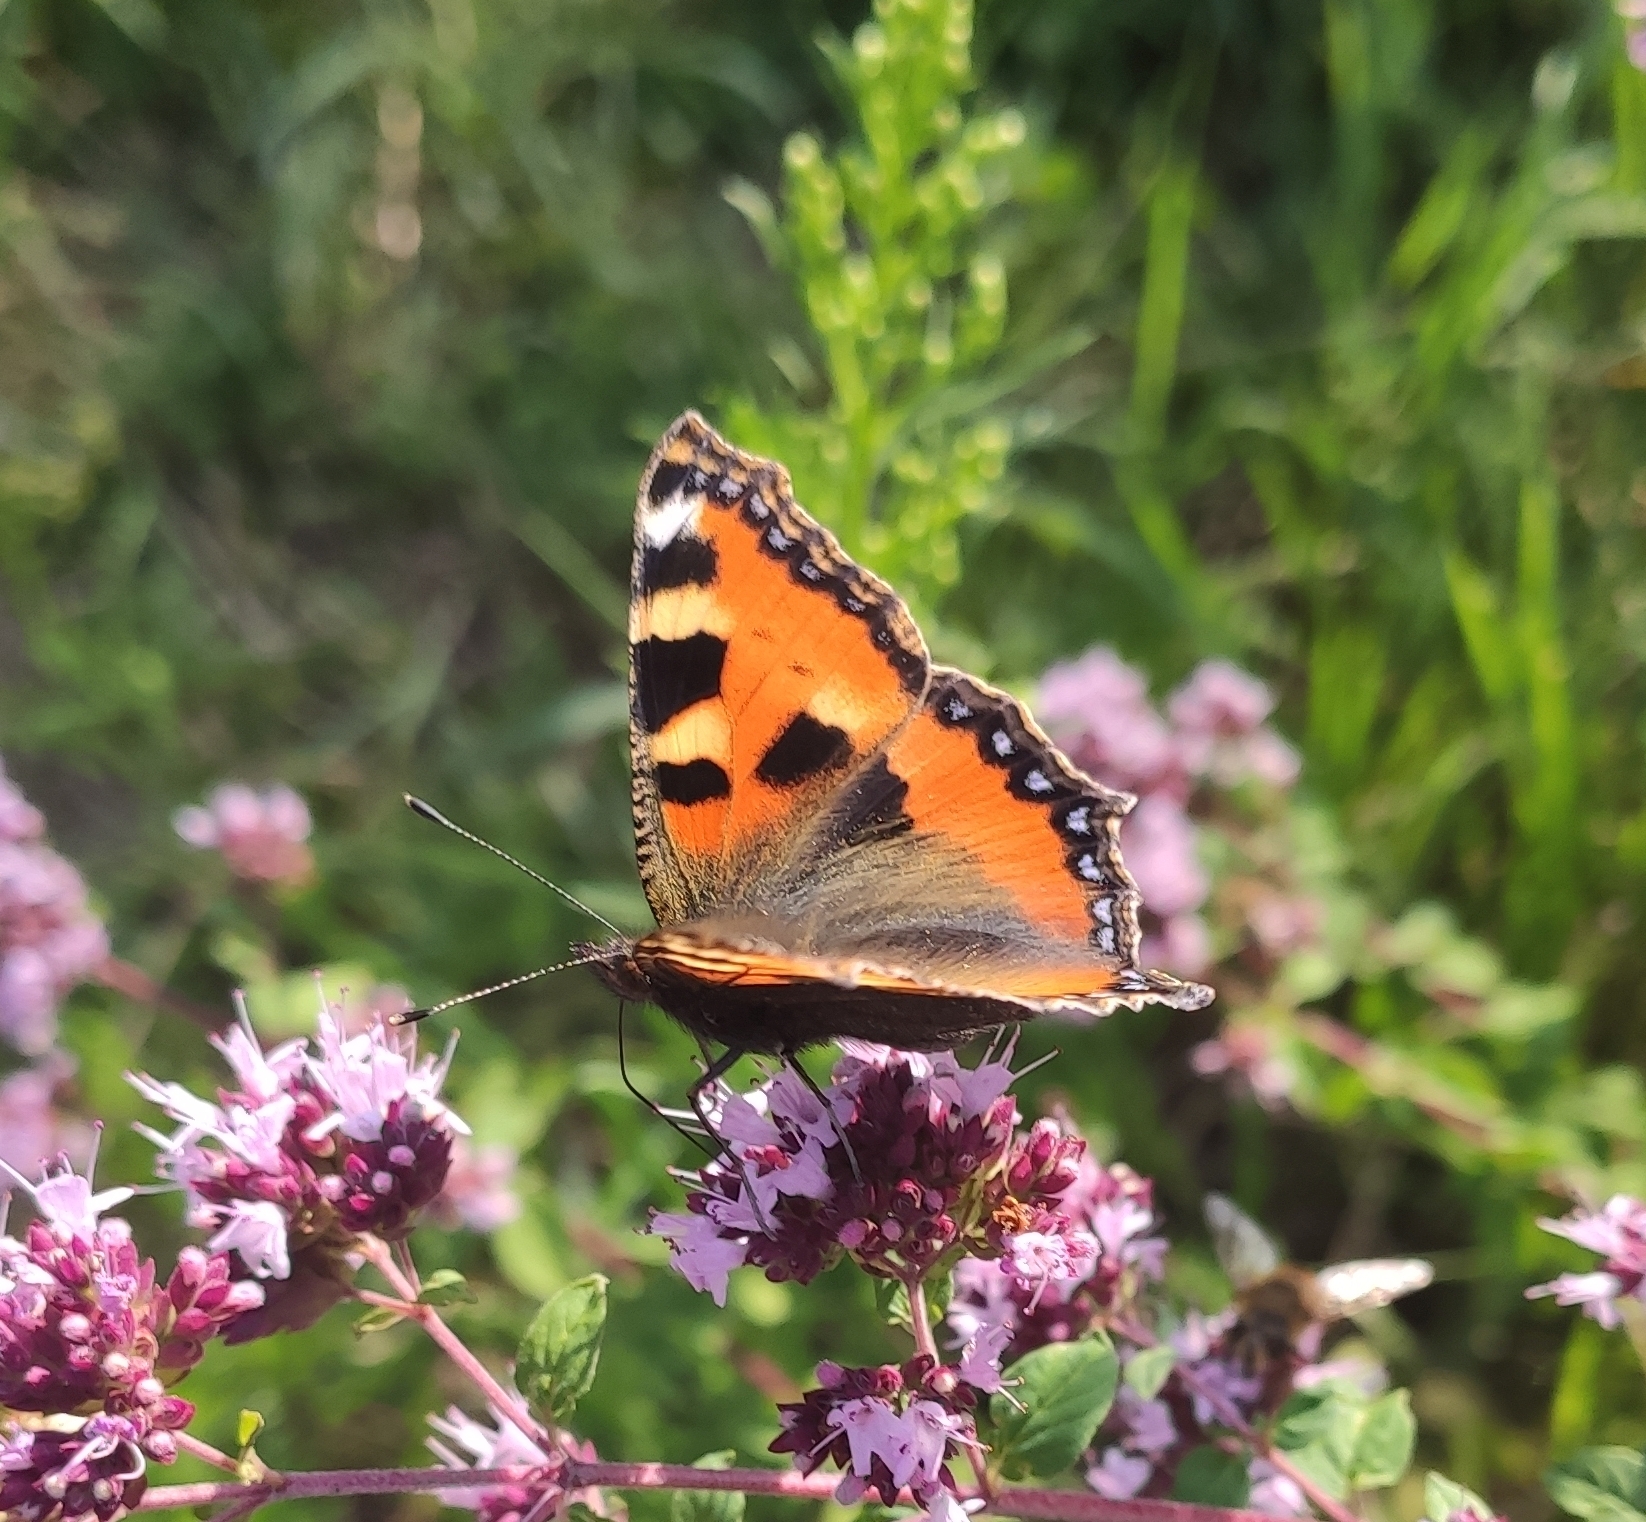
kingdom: Animalia
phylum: Arthropoda
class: Insecta
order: Lepidoptera
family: Nymphalidae
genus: Aglais
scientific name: Aglais urticae
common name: Small tortoiseshell
